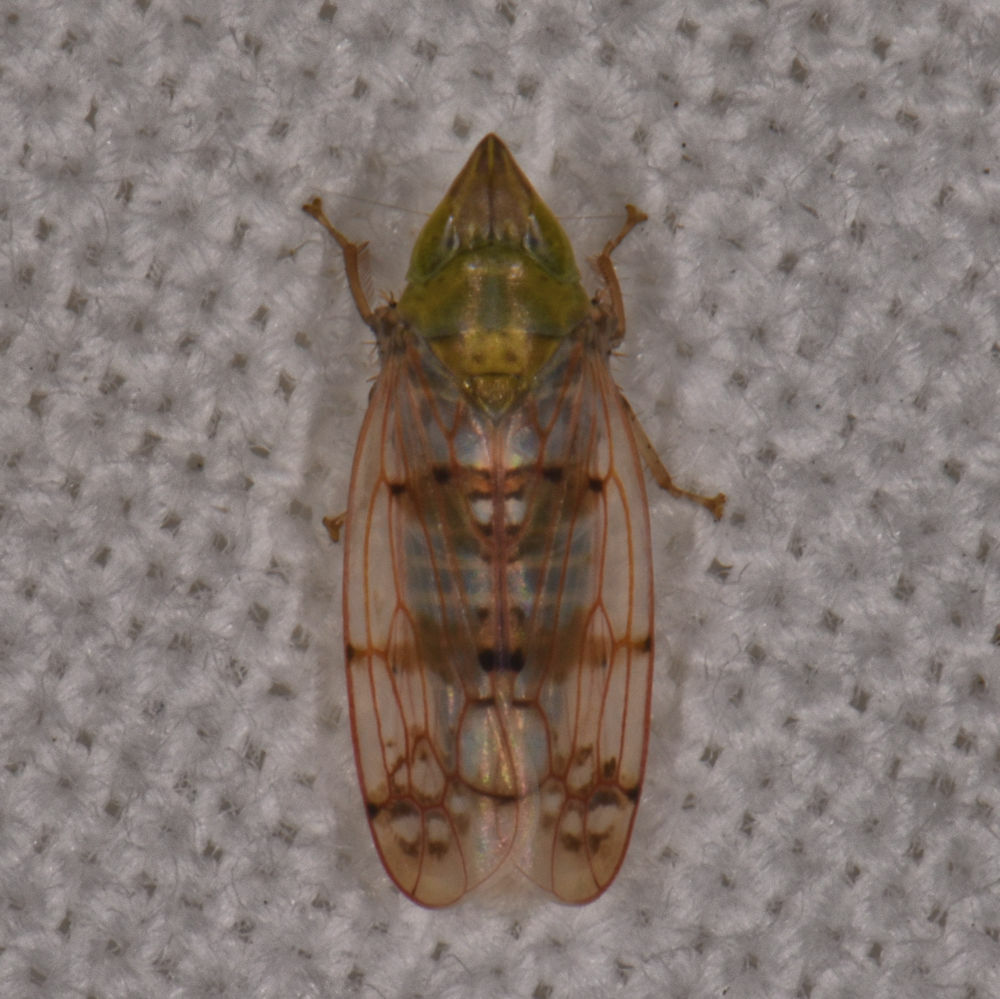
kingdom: Animalia
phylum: Arthropoda
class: Insecta
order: Hemiptera
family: Cicadellidae
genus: Japananus
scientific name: Japananus hyalinus
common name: The japanese maple leafhopper
